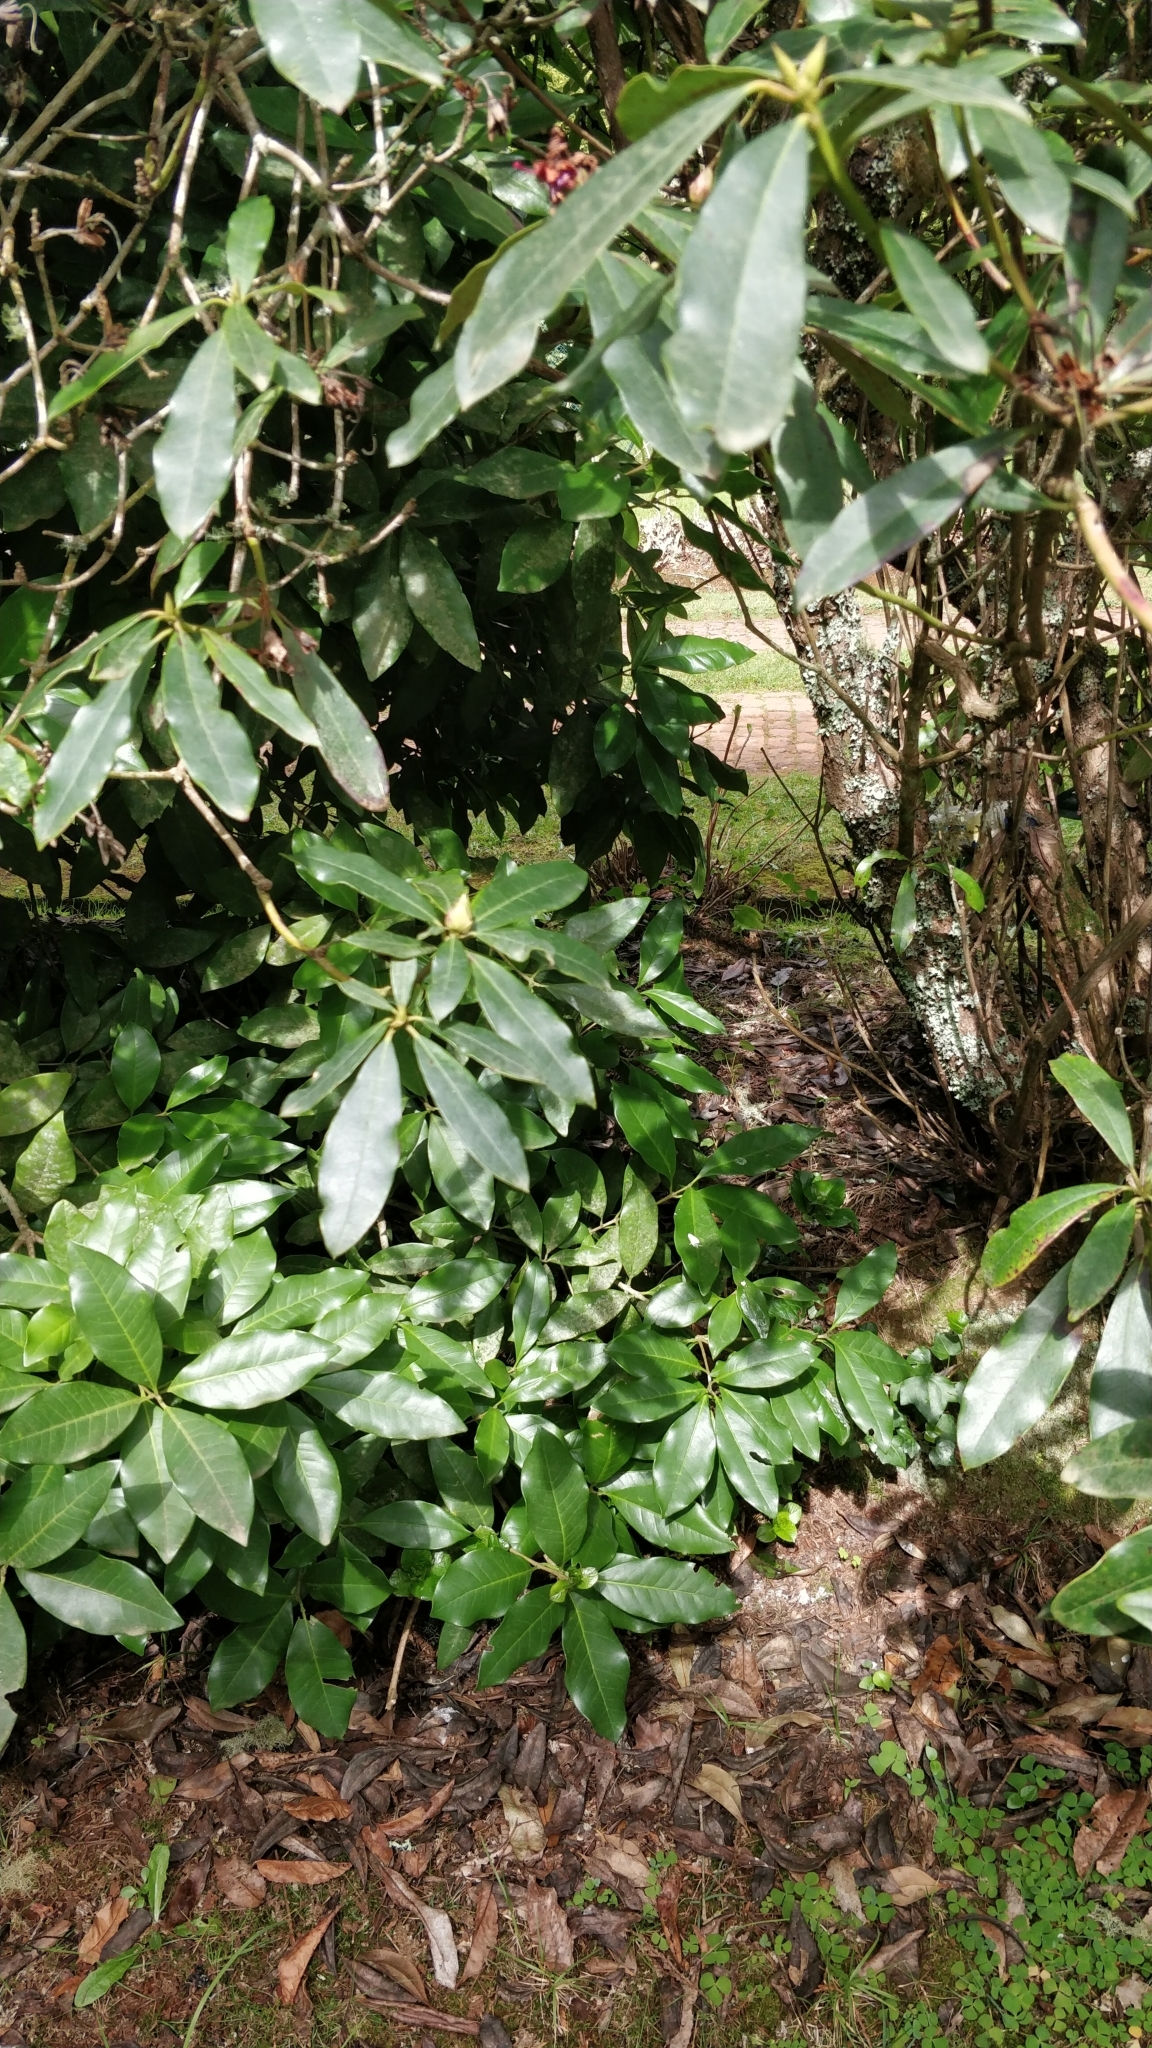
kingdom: Plantae
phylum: Tracheophyta
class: Magnoliopsida
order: Lamiales
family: Oleaceae
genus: Picconia
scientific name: Picconia excelsa
